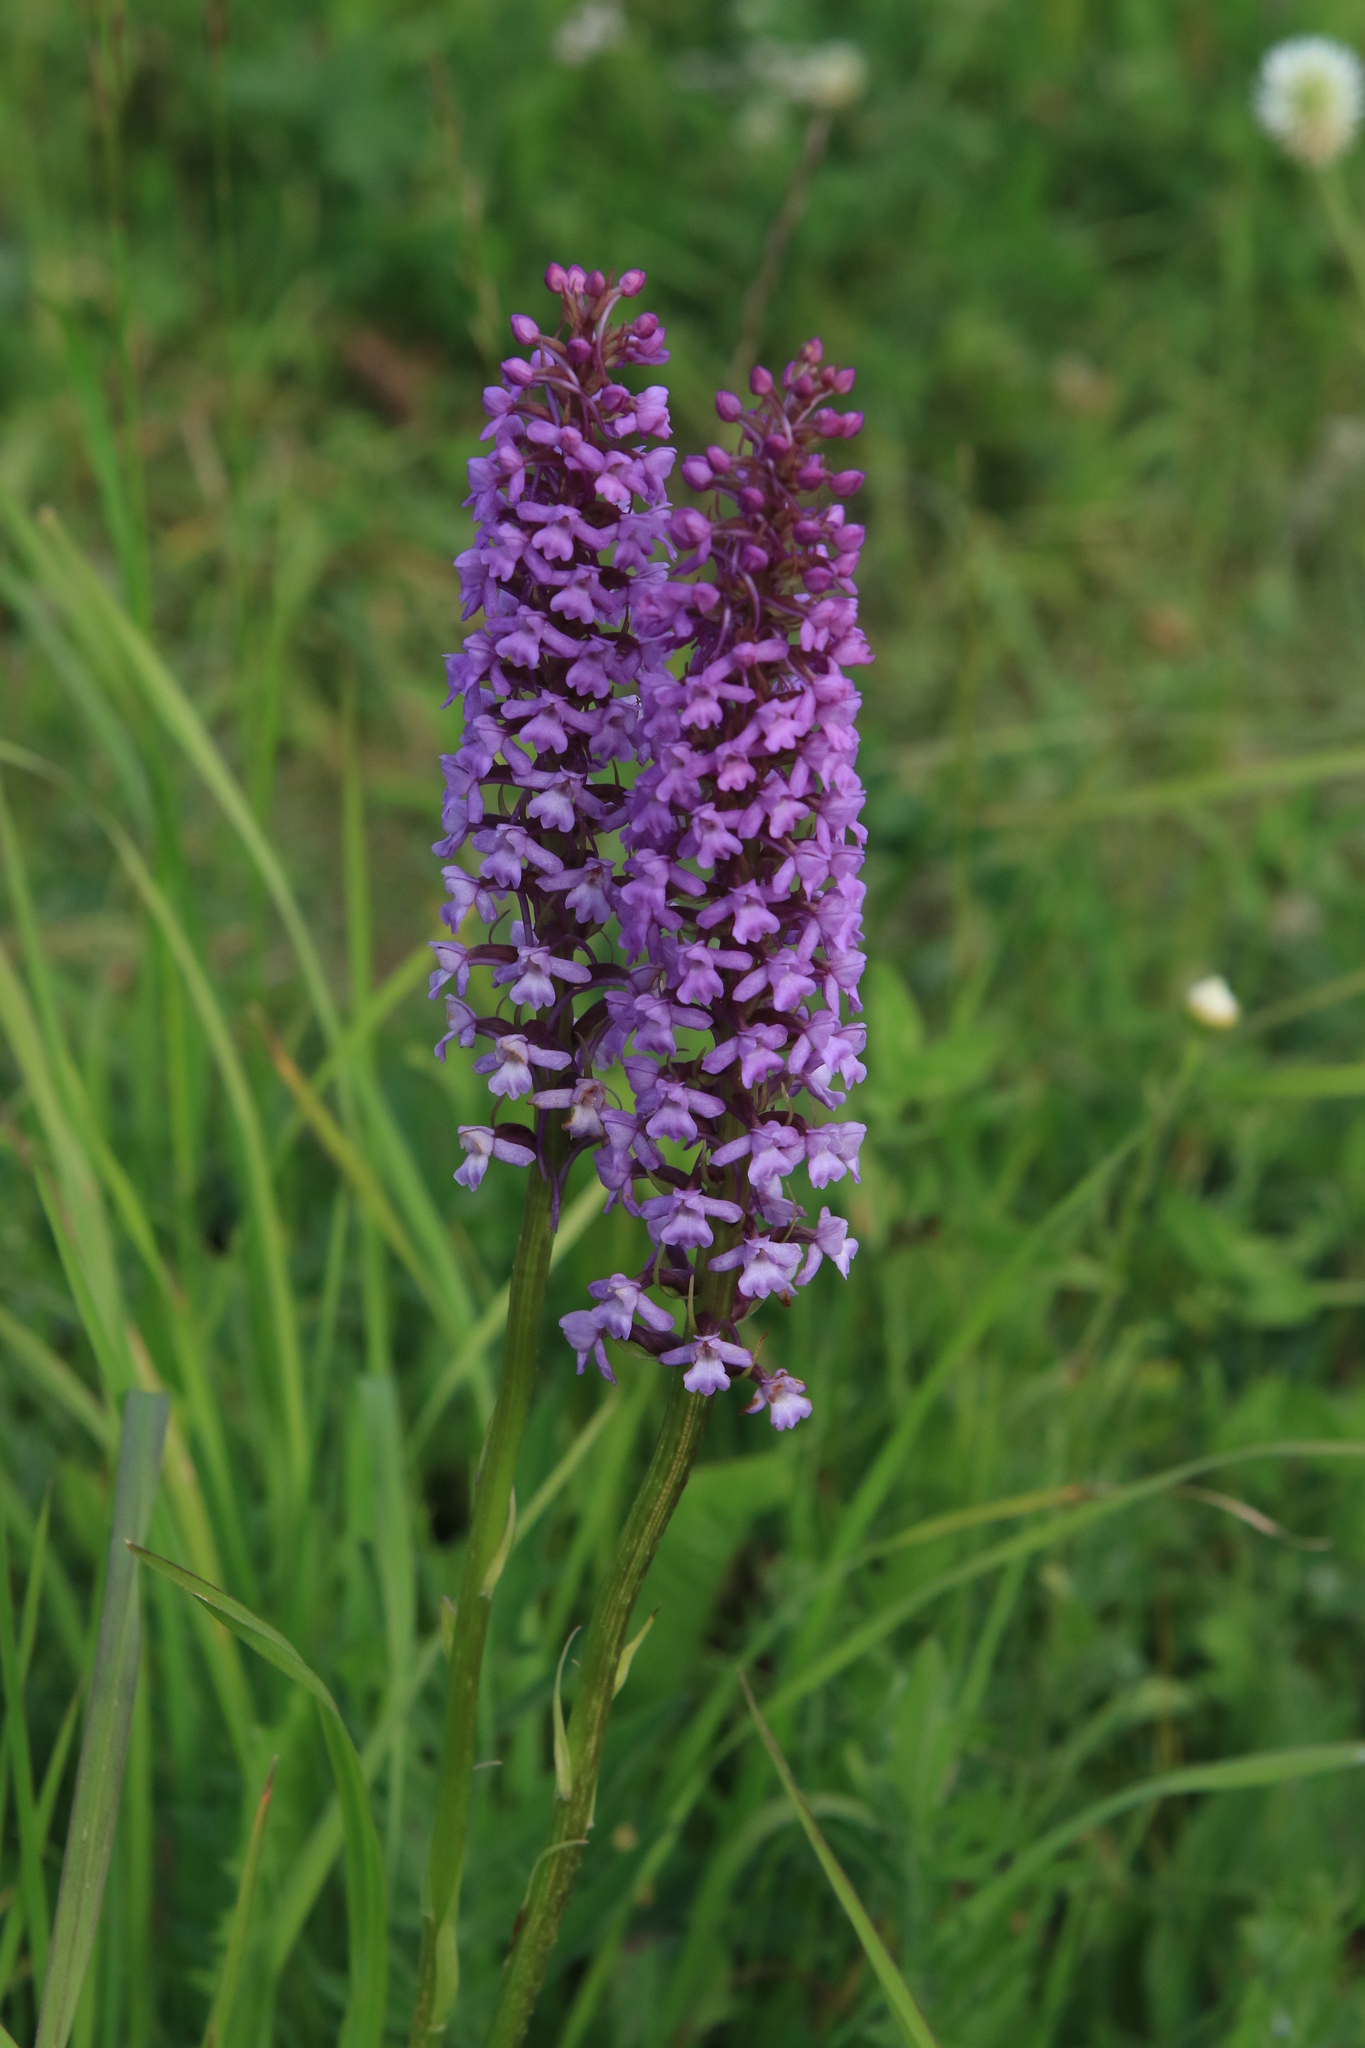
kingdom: Plantae
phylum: Tracheophyta
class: Liliopsida
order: Asparagales
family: Orchidaceae
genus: Gymnadenia
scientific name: Gymnadenia conopsea
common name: Fragrant orchid
